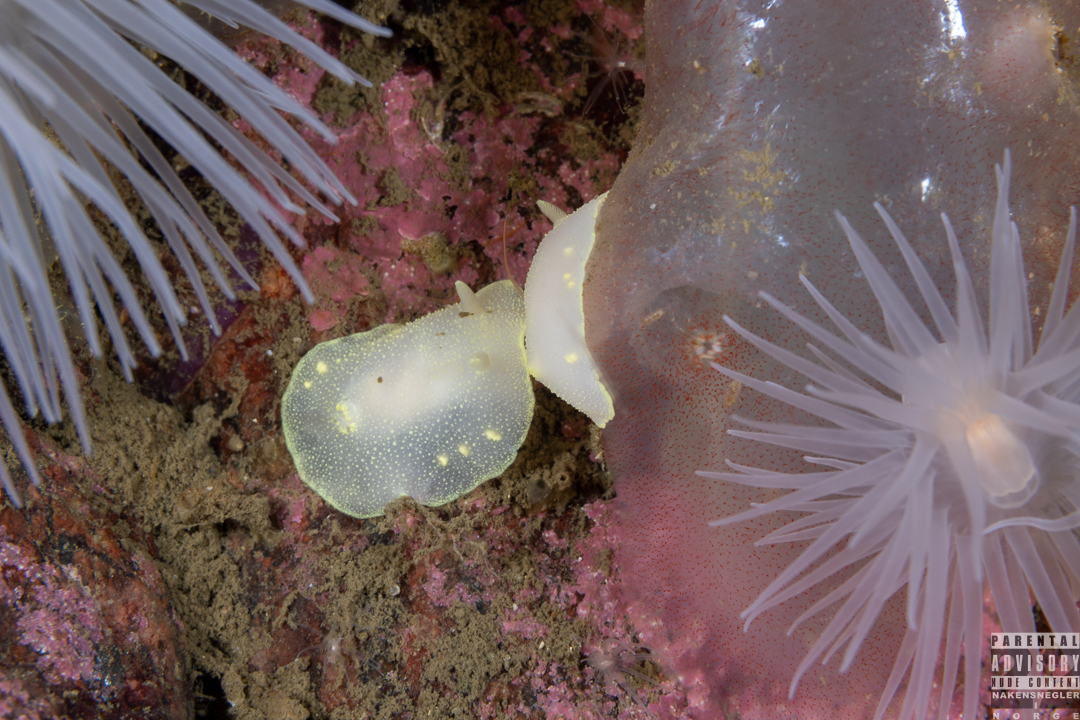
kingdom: Animalia
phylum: Mollusca
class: Gastropoda
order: Nudibranchia
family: Cadlinidae
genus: Cadlina
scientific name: Cadlina laevis
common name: White atlantic cadlina
